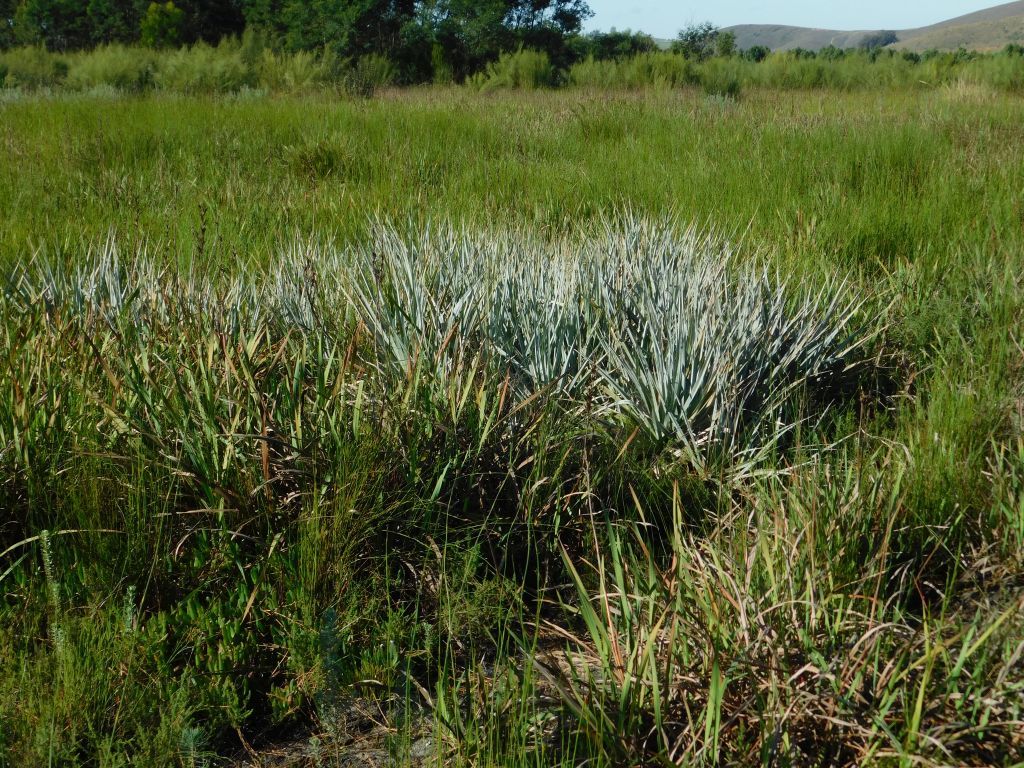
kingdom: Plantae
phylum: Tracheophyta
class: Liliopsida
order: Poales
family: Thurniaceae
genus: Prionium
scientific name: Prionium serratum
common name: Palmiet
